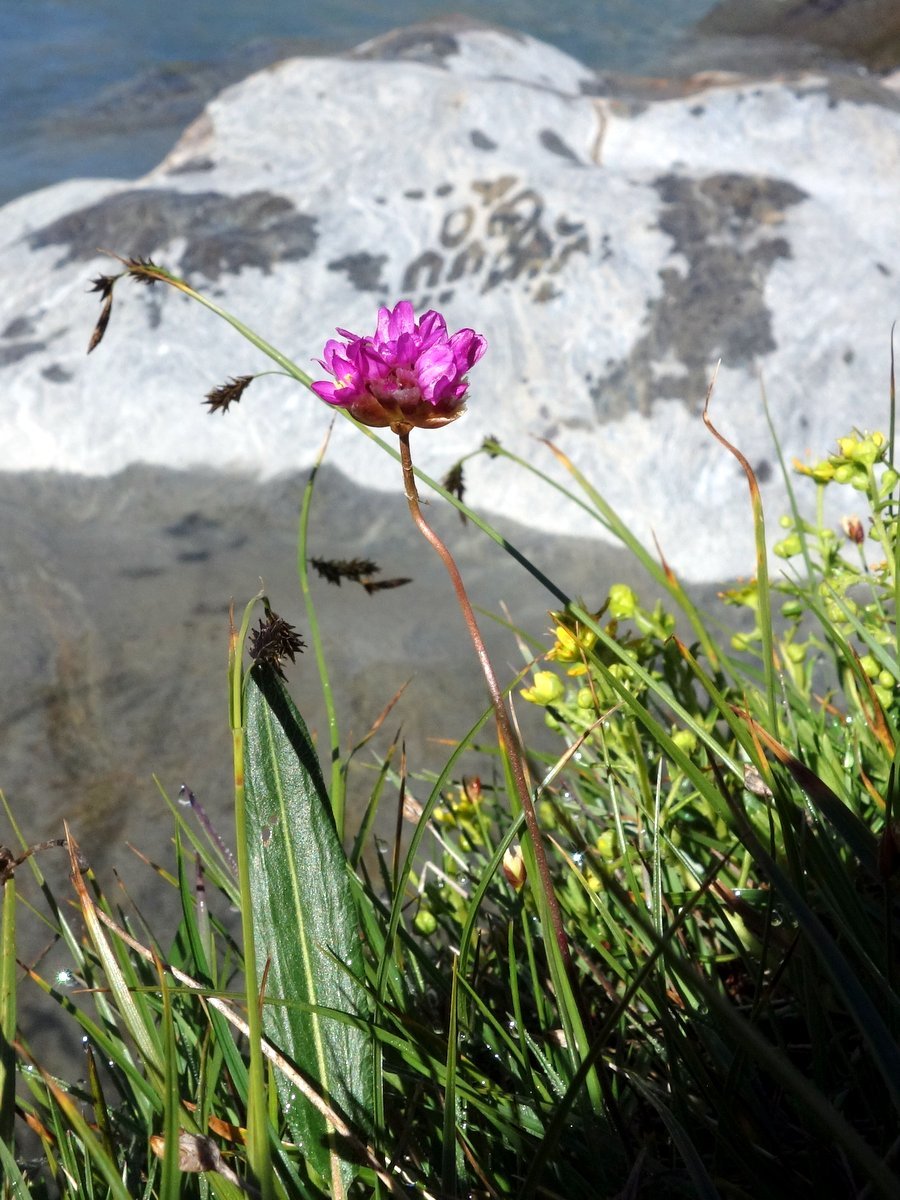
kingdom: Plantae
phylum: Tracheophyta
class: Magnoliopsida
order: Caryophyllales
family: Plumbaginaceae
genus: Armeria
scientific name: Armeria alpina
